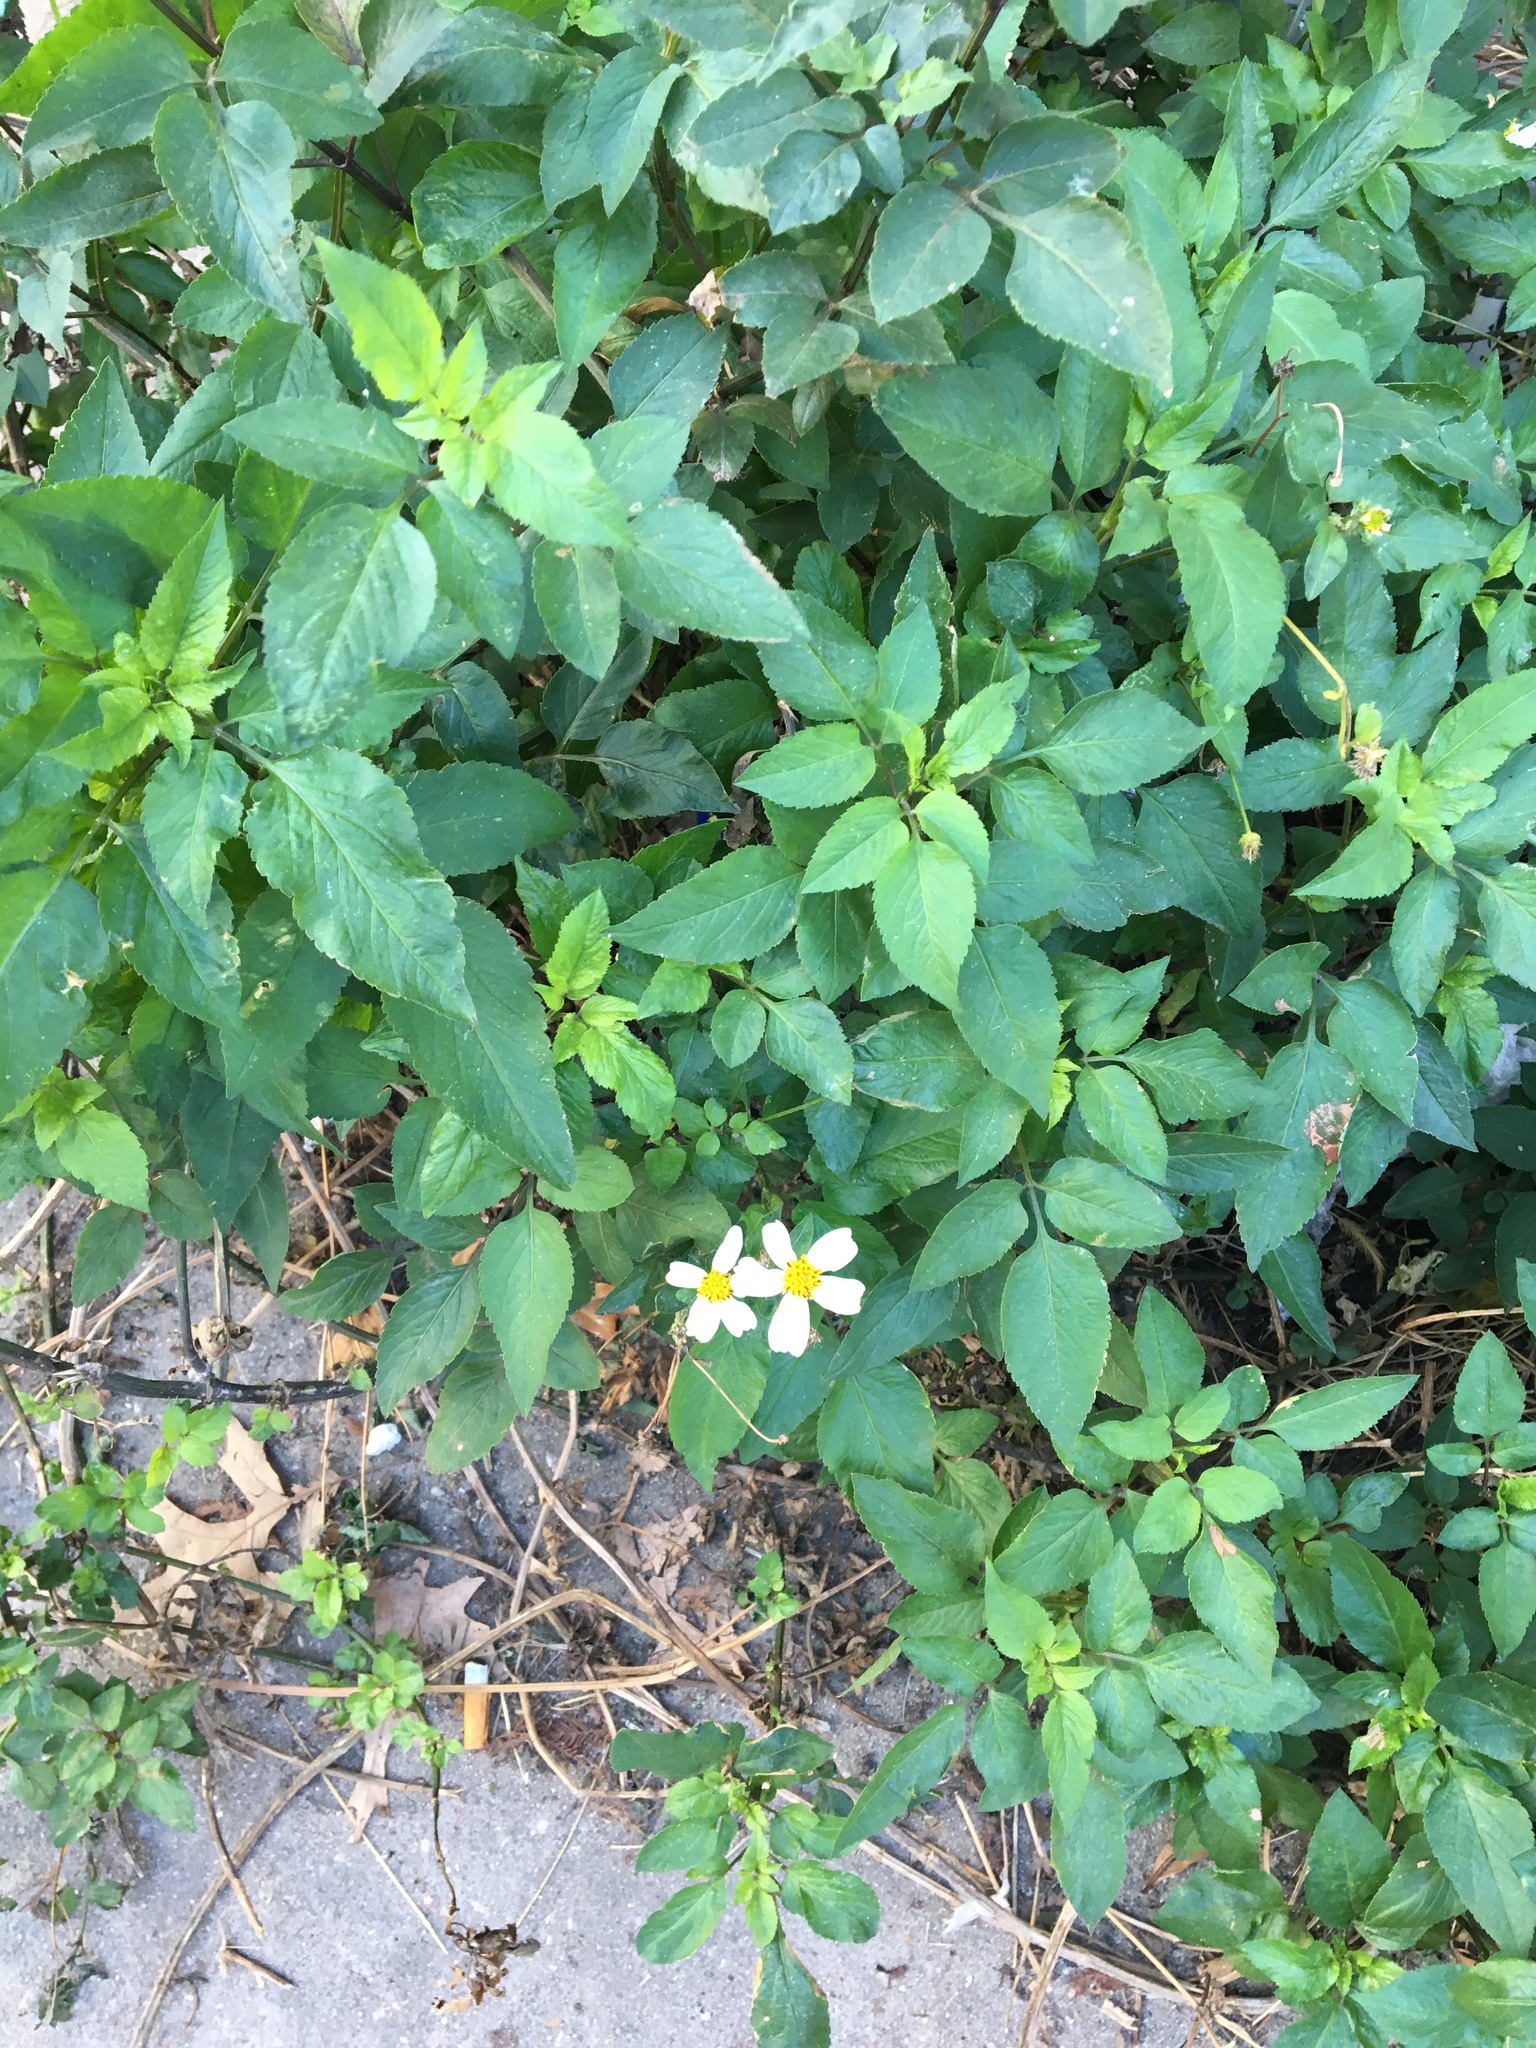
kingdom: Plantae
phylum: Tracheophyta
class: Magnoliopsida
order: Asterales
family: Asteraceae
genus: Bidens
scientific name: Bidens alba
